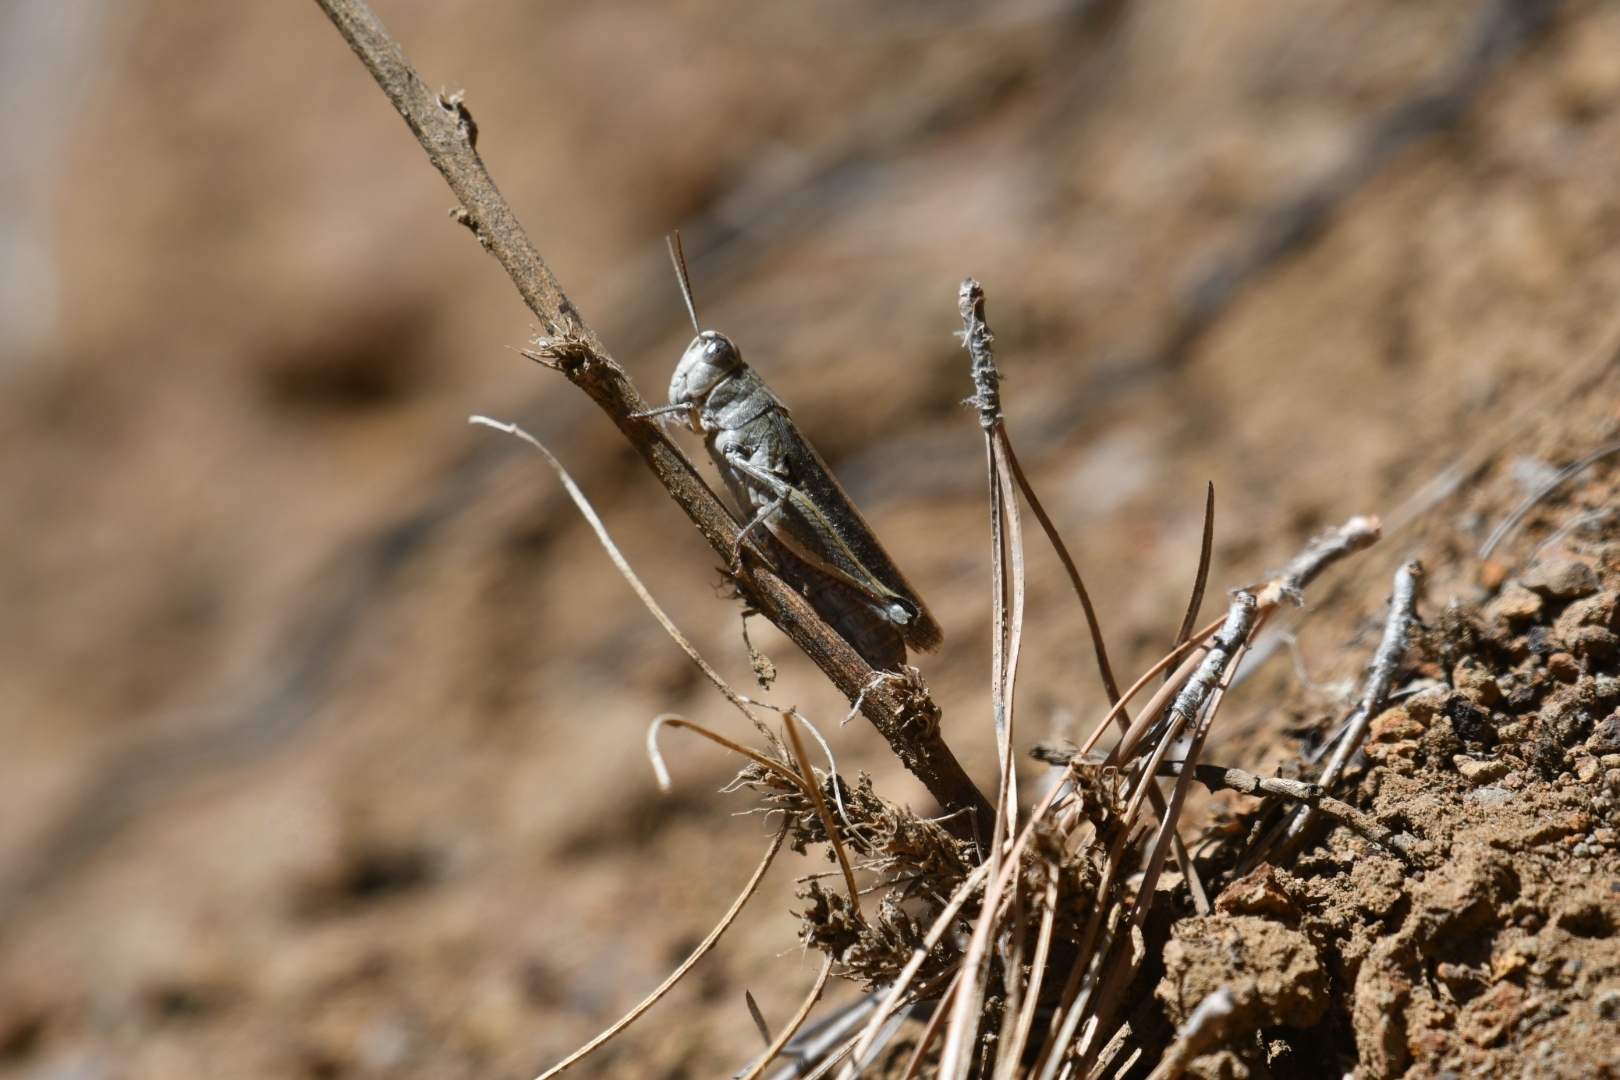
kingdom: Animalia
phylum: Arthropoda
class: Insecta
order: Orthoptera
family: Acrididae
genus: Calliptamus
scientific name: Calliptamus plebeius
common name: Canarian pincer grasshopper
